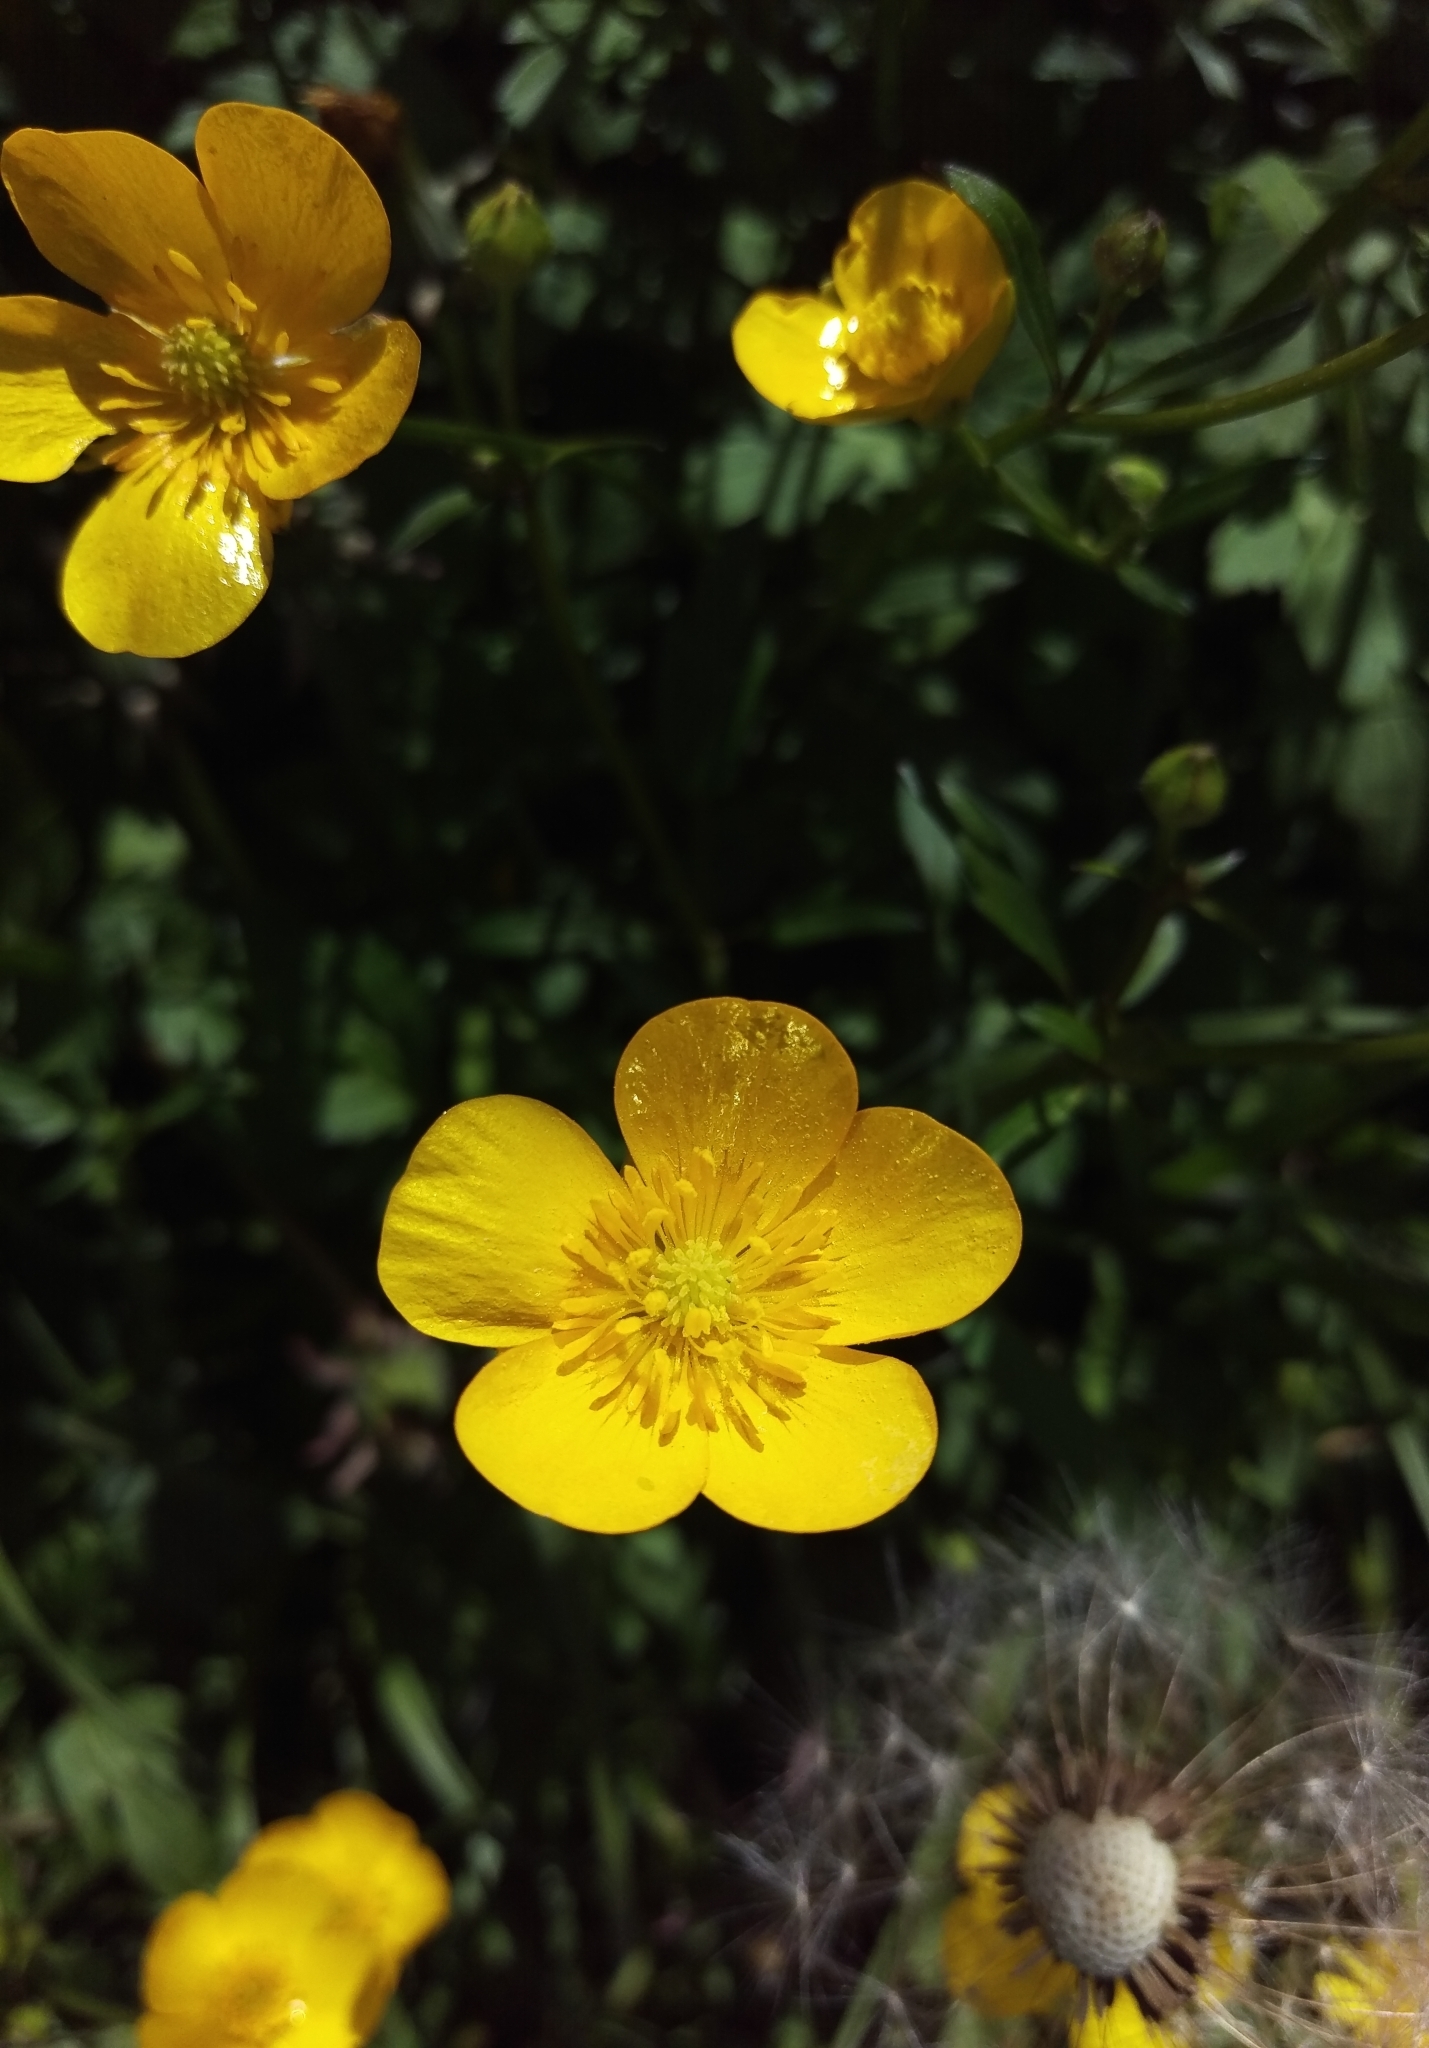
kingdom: Plantae
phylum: Tracheophyta
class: Magnoliopsida
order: Ranunculales
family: Ranunculaceae
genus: Ranunculus
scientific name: Ranunculus bulbosus
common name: Bulbous buttercup
